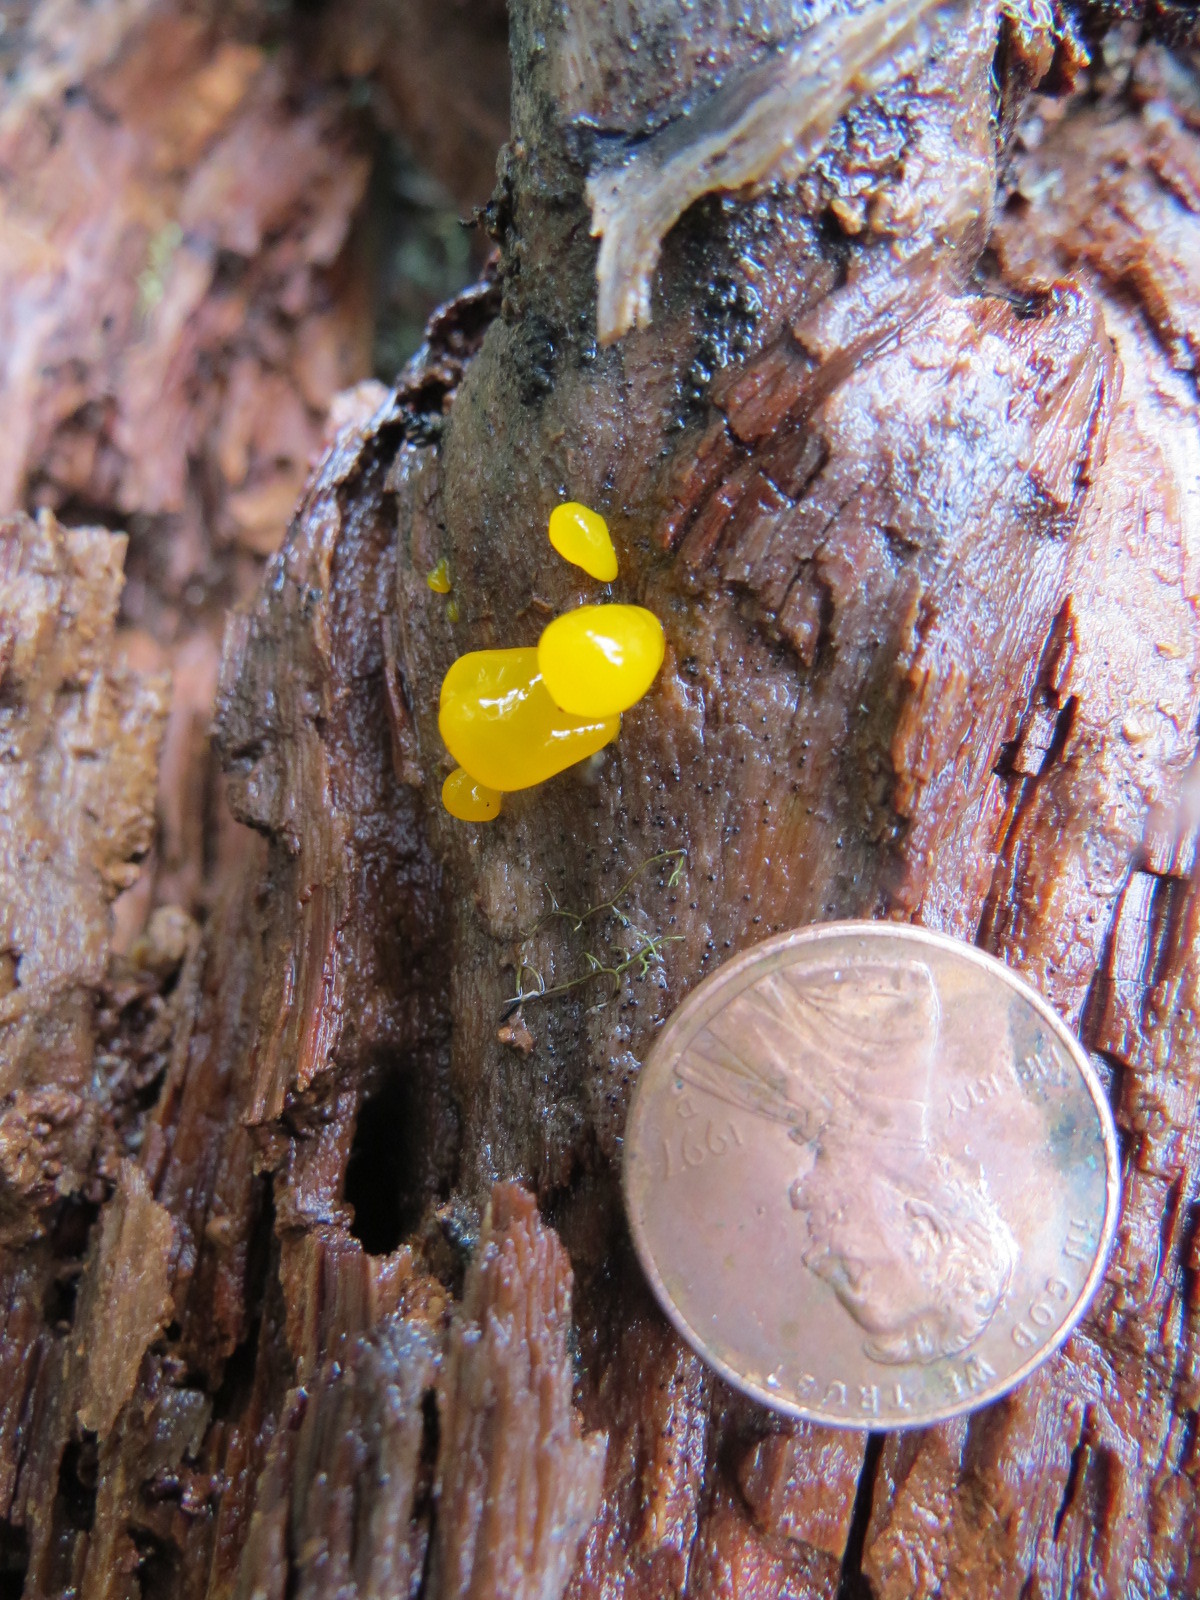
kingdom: Fungi
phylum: Basidiomycota
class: Dacrymycetes
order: Dacrymycetales
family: Dacrymycetaceae
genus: Dacrymyces
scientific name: Dacrymyces chrysospermus
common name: Orange jelly spot
